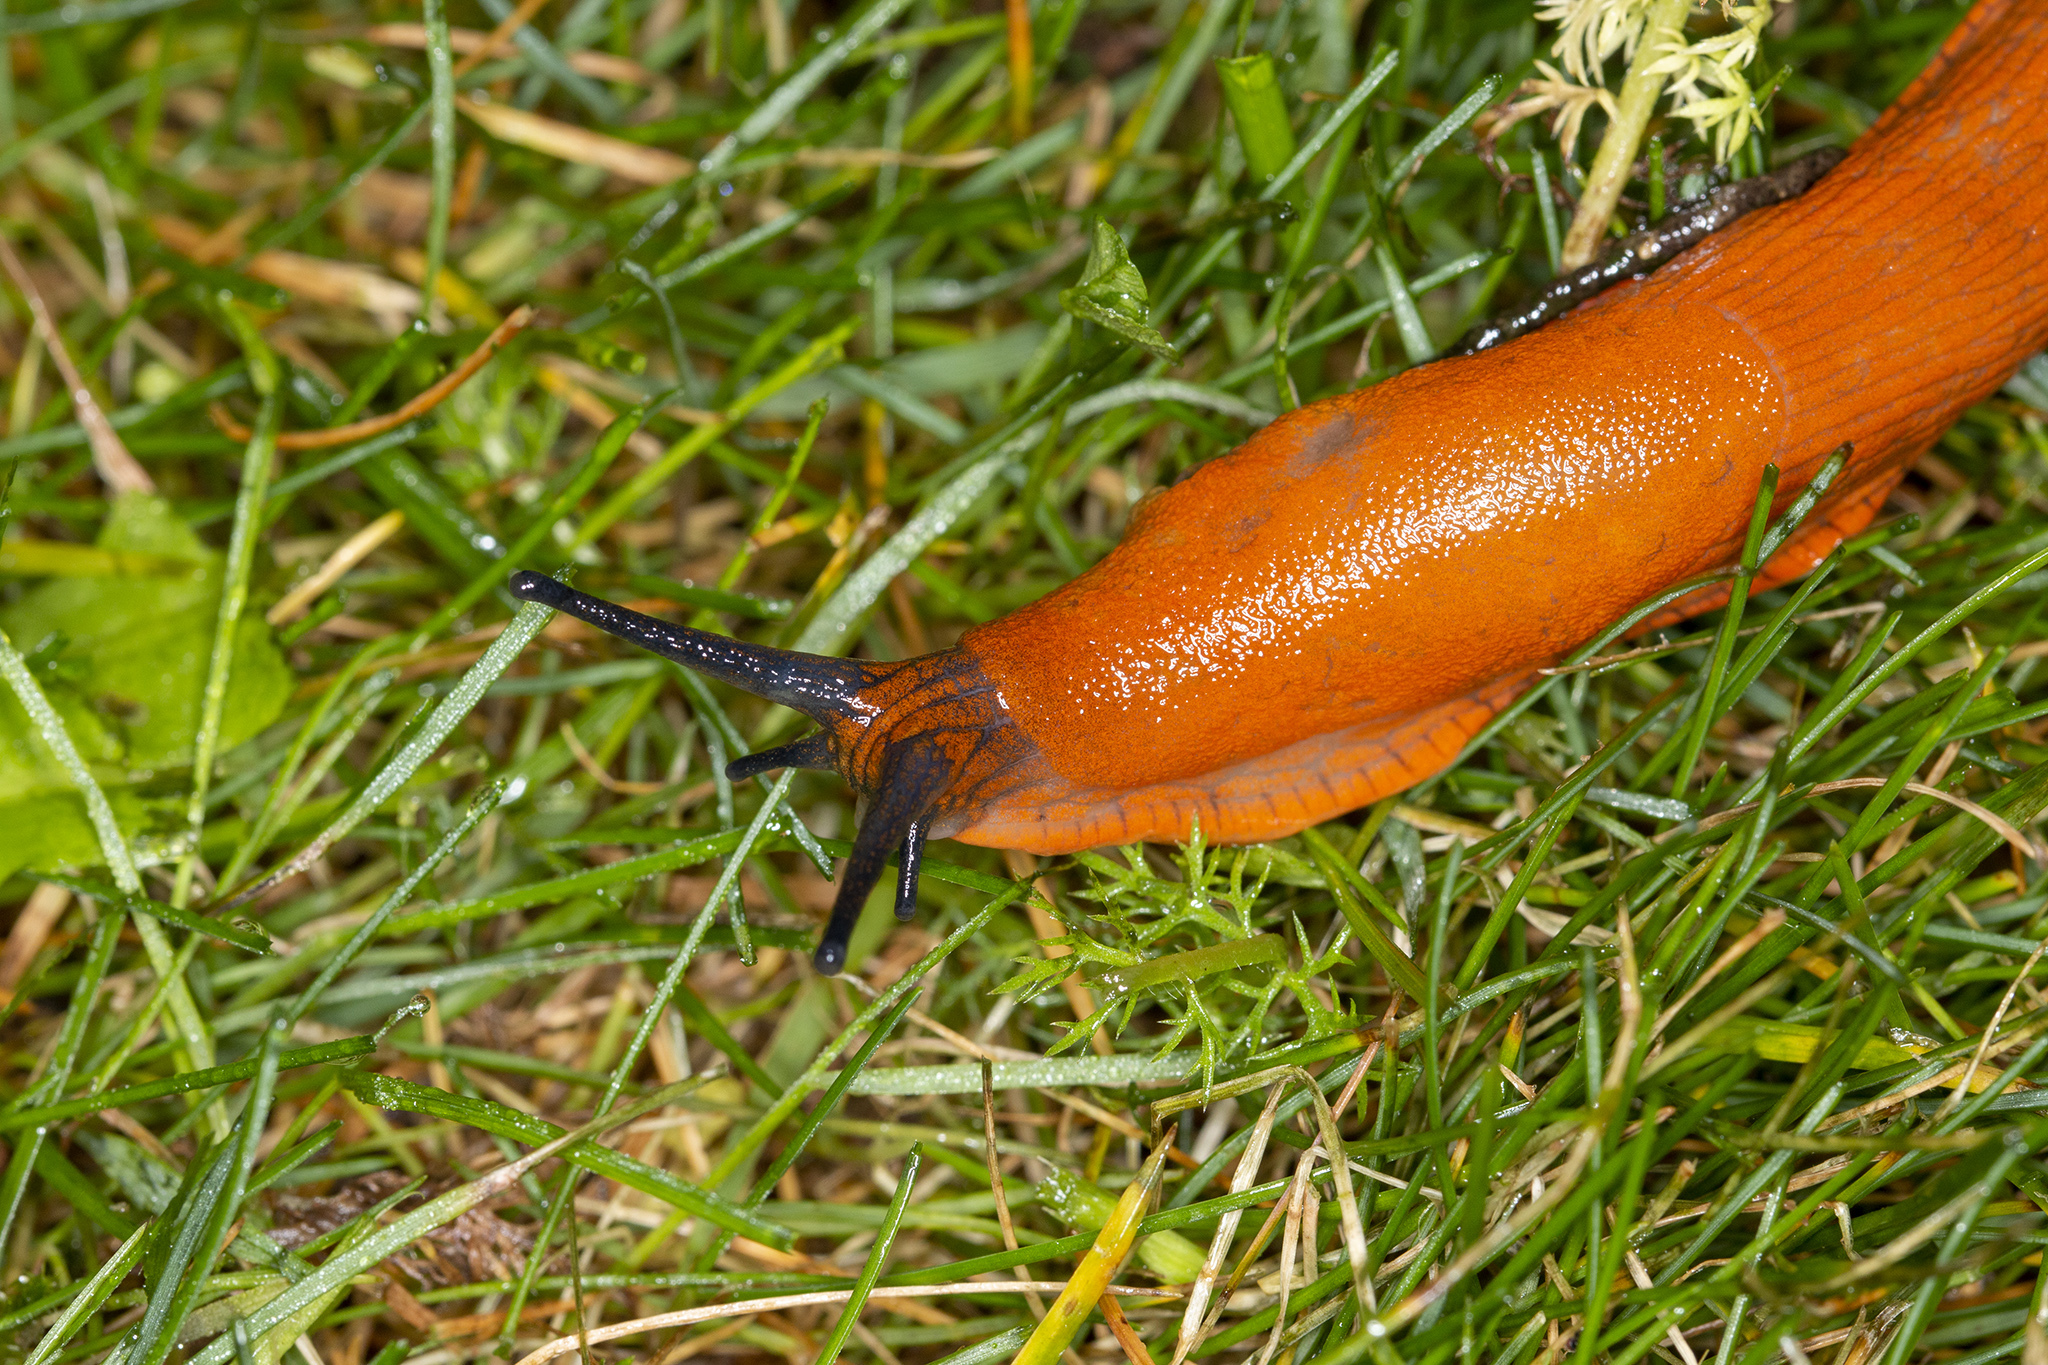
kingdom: Animalia
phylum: Mollusca
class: Gastropoda
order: Stylommatophora
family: Arionidae
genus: Arion
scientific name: Arion rufus
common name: Chocolate arion
